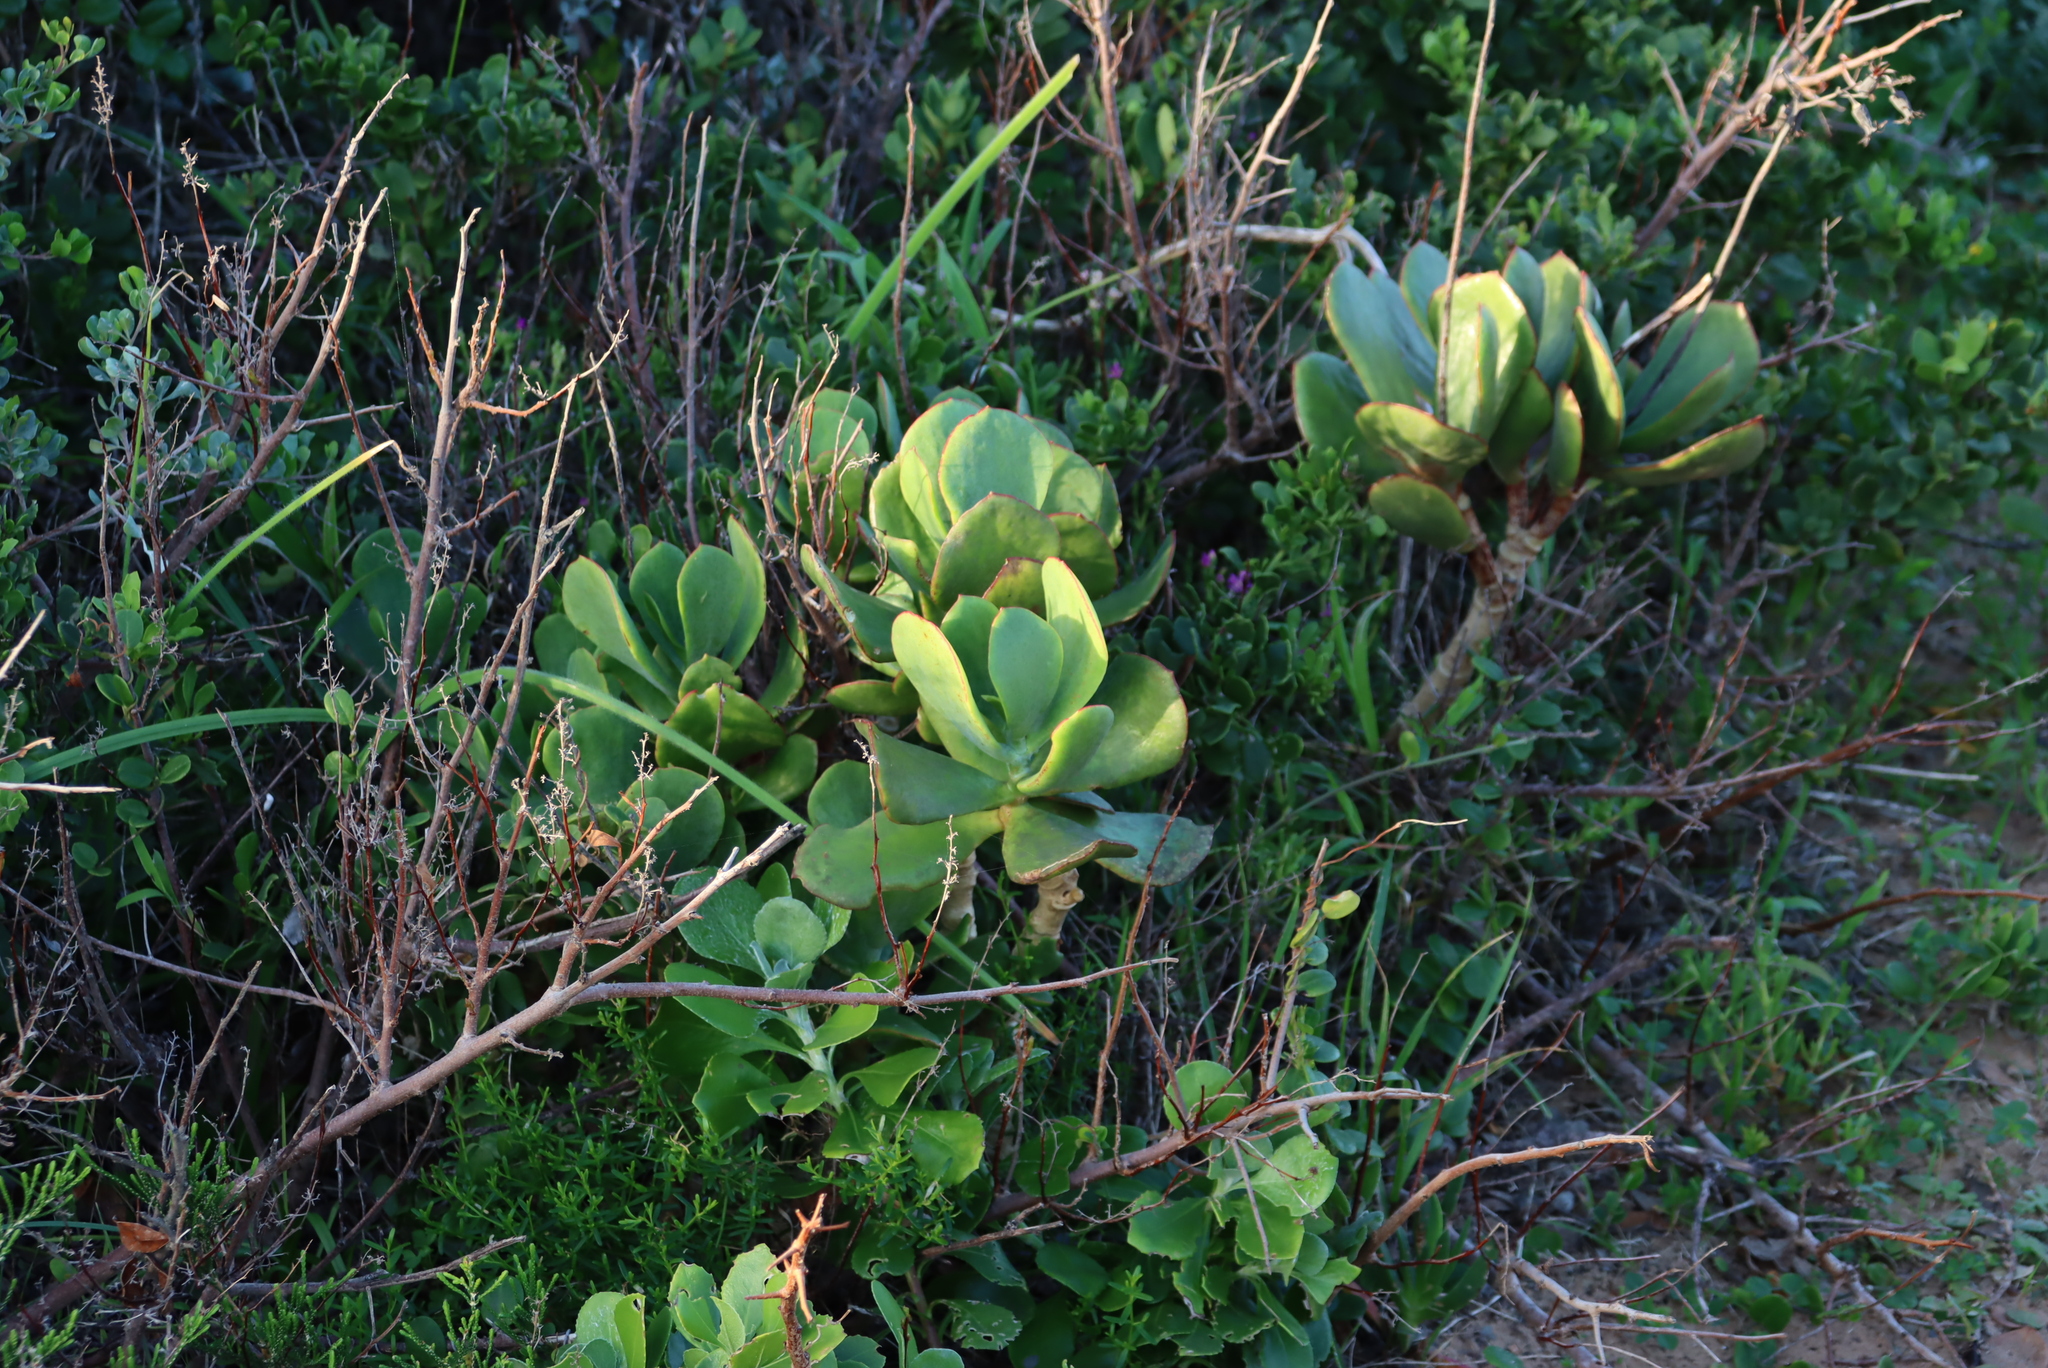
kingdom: Plantae
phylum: Tracheophyta
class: Magnoliopsida
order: Saxifragales
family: Crassulaceae
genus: Cotyledon
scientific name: Cotyledon orbiculata
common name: Pig's ear
